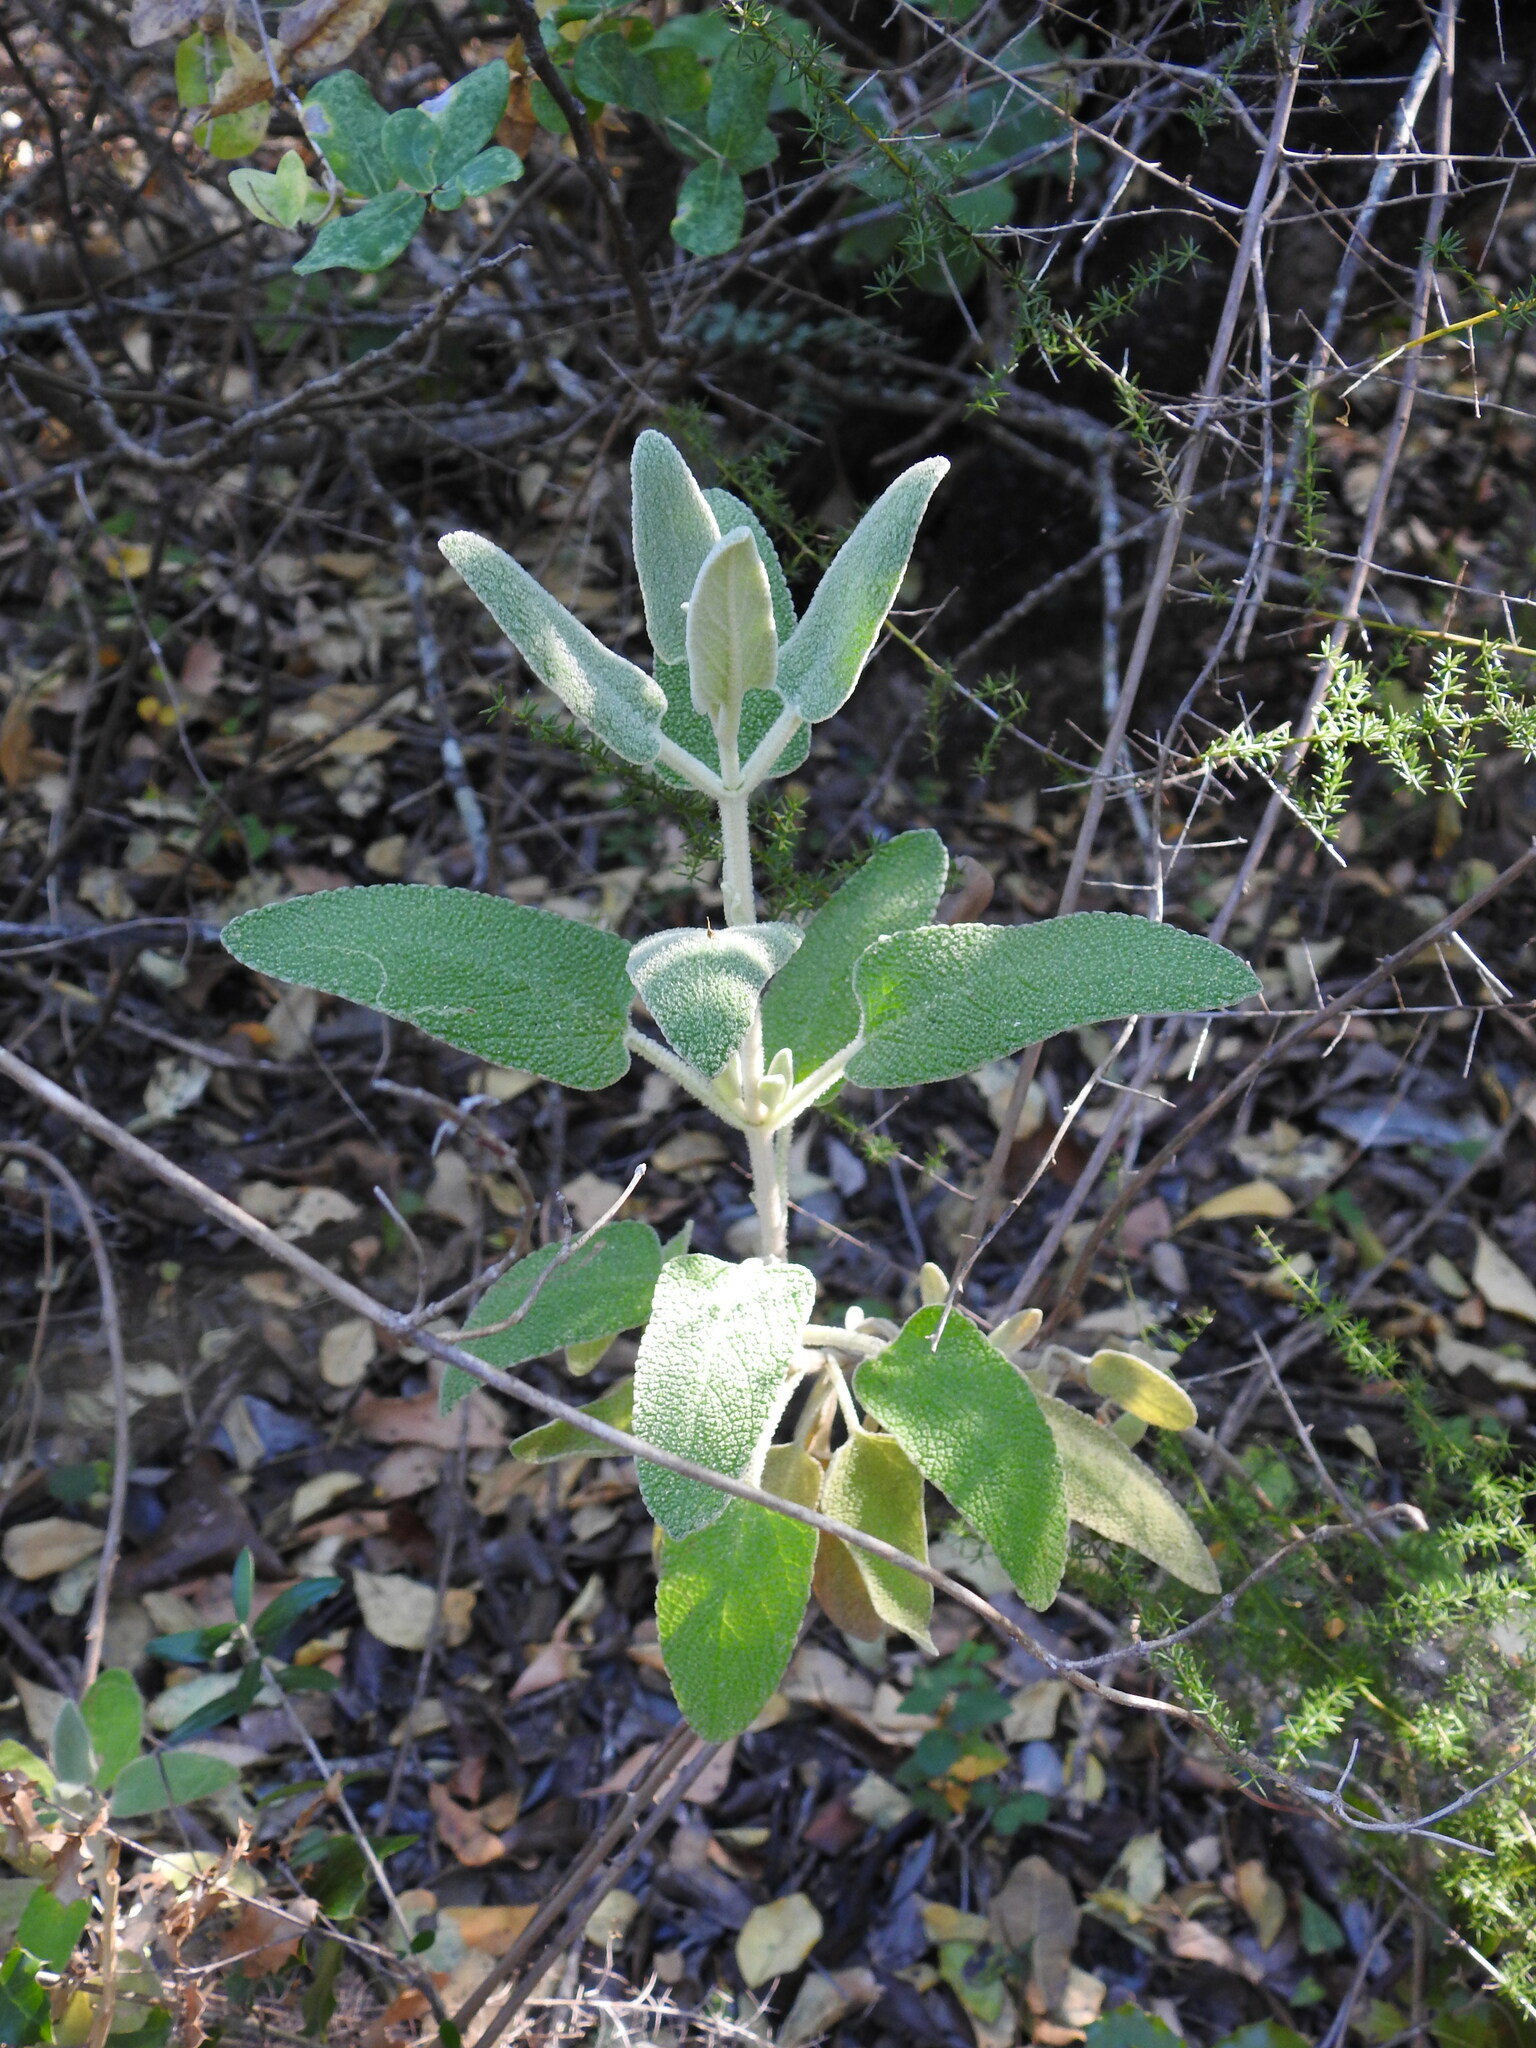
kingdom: Plantae
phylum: Tracheophyta
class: Magnoliopsida
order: Lamiales
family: Lamiaceae
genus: Phlomis
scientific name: Phlomis purpurea
